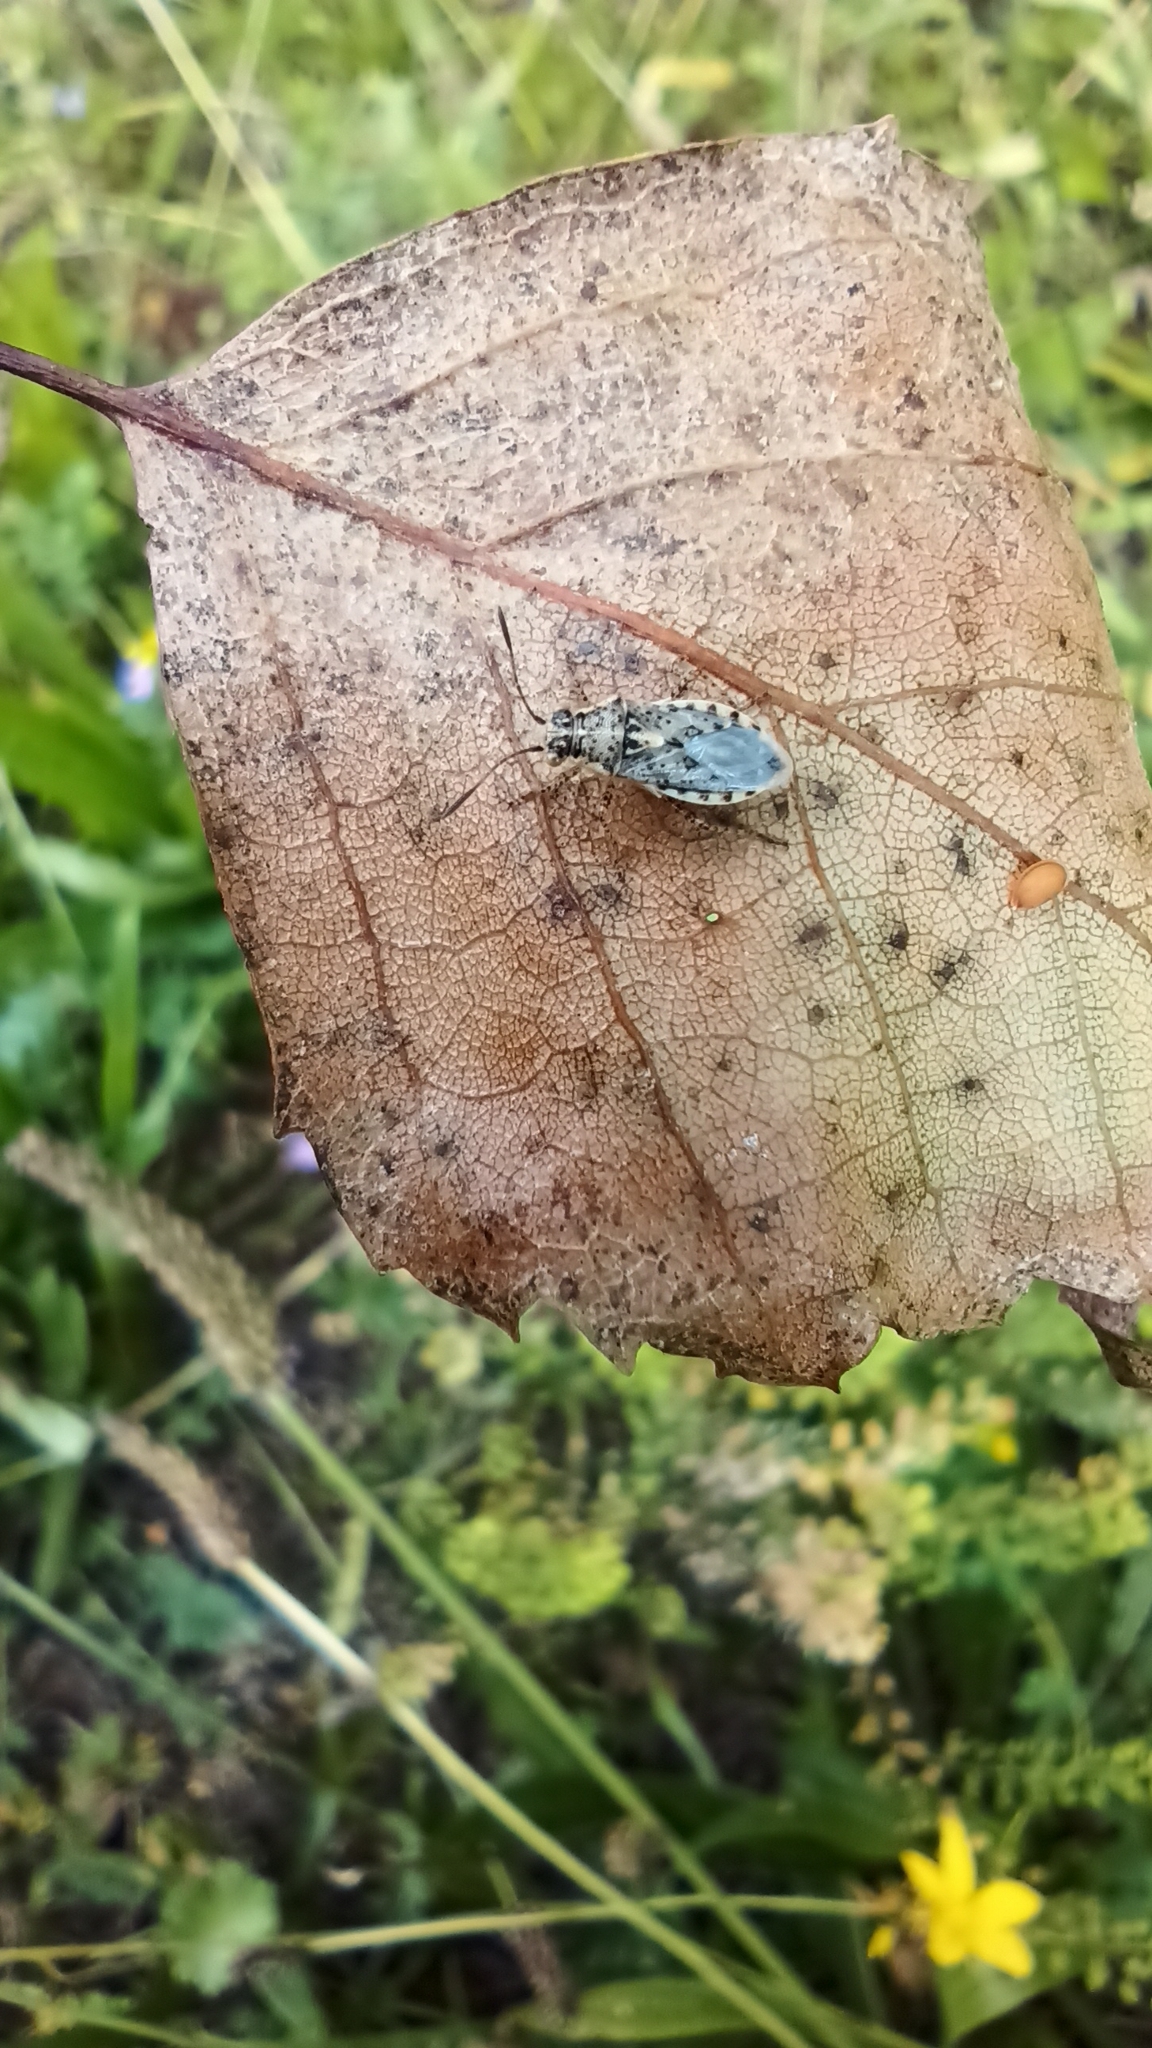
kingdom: Animalia
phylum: Arthropoda
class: Insecta
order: Hemiptera
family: Rhopalidae
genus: Brachycarenus
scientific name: Brachycarenus tigrinus
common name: Scentless plant bug
